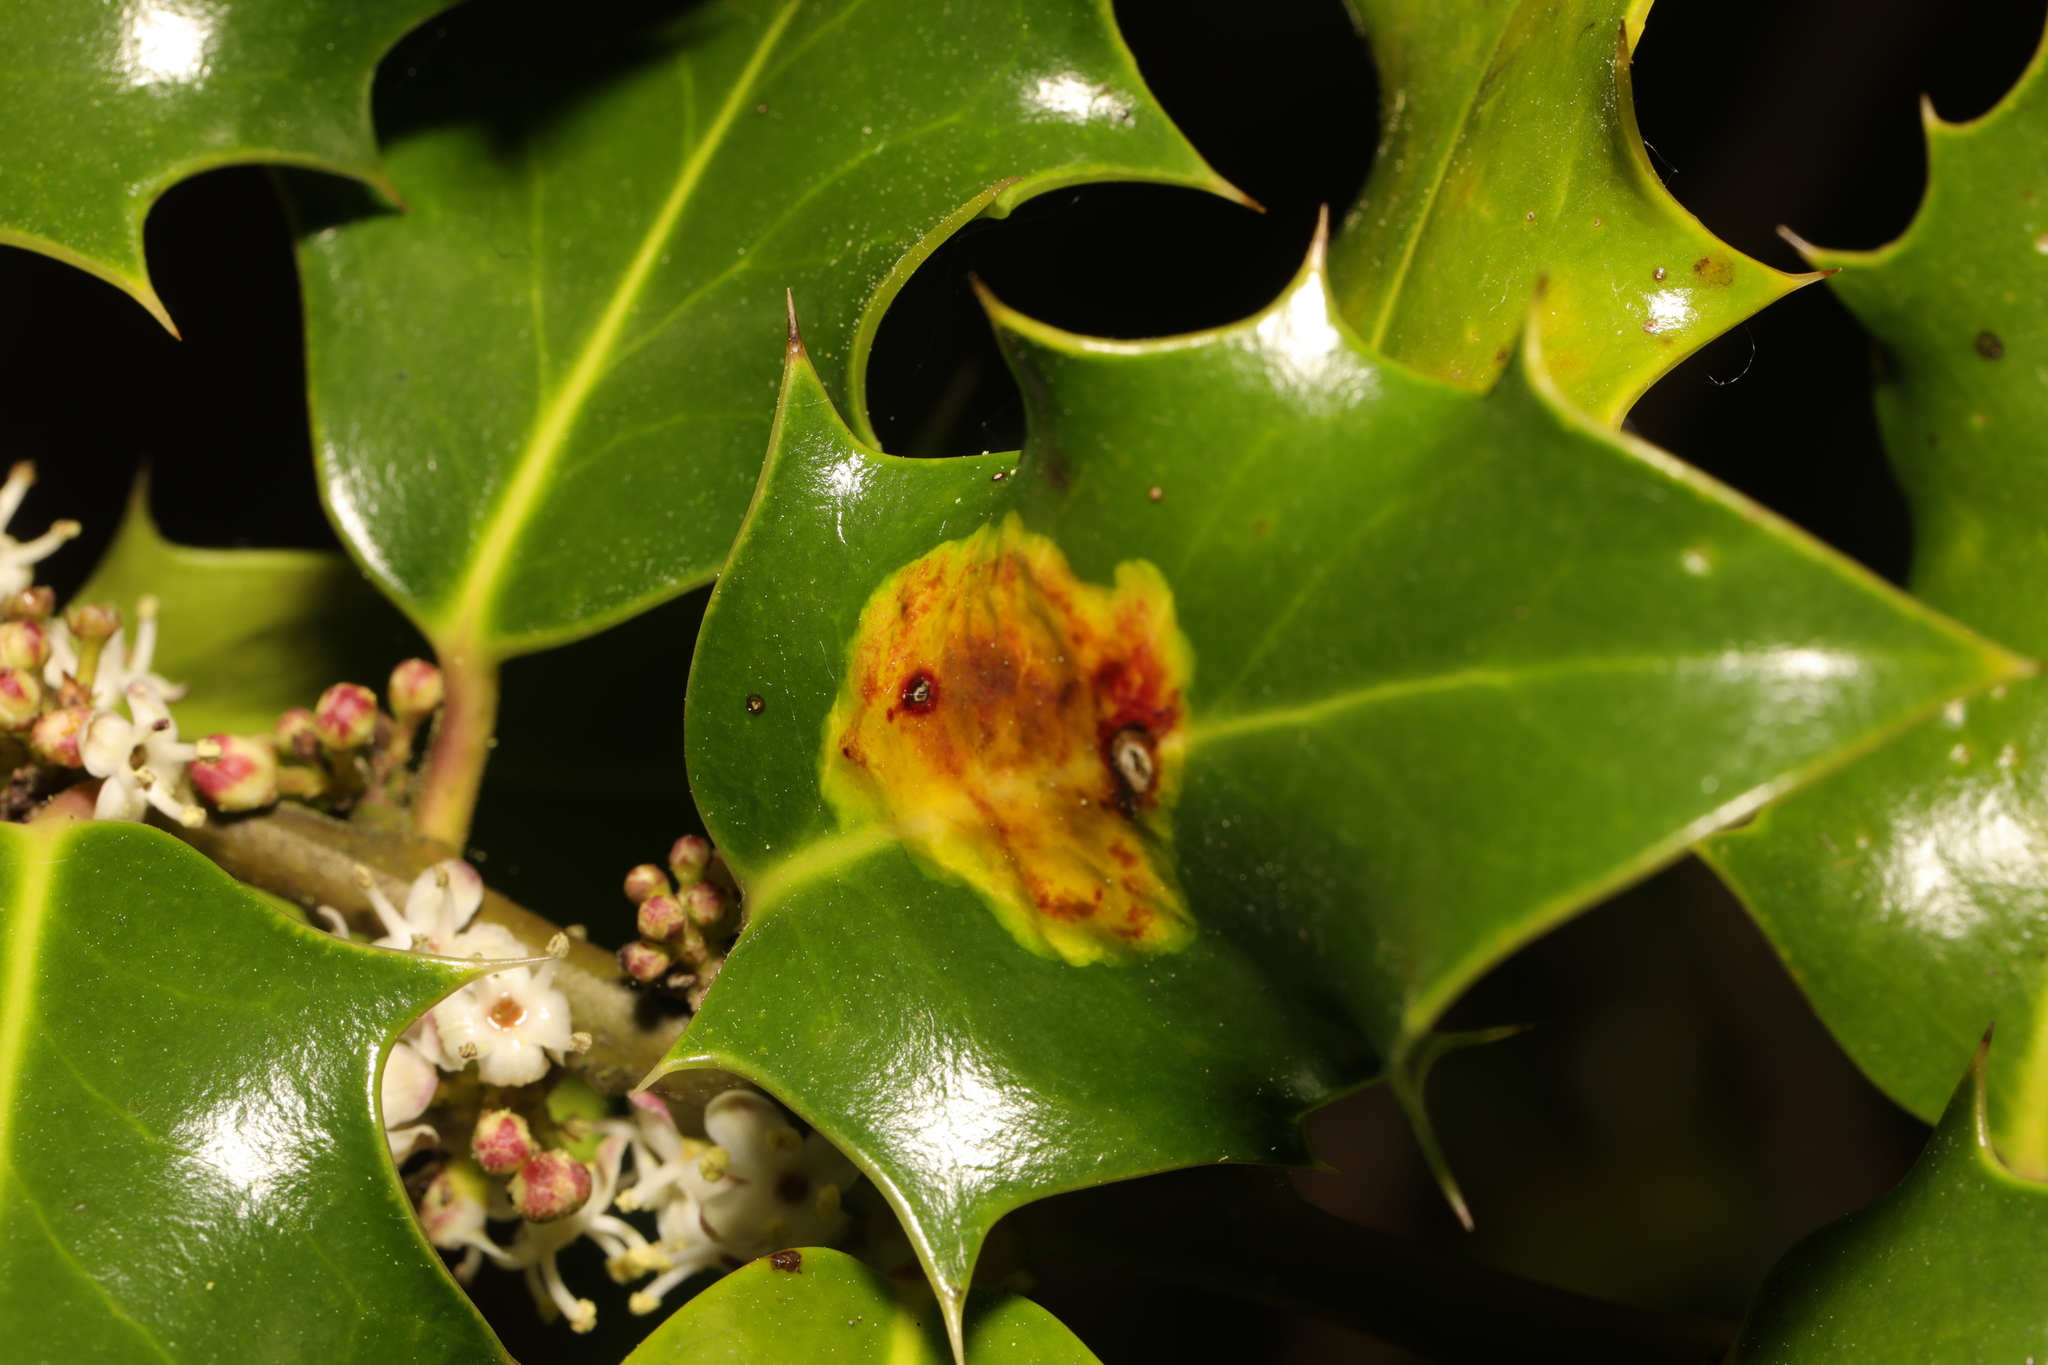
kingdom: Animalia
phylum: Arthropoda
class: Insecta
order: Diptera
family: Agromyzidae
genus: Phytomyza
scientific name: Phytomyza ilicis
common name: Holly leafminer
